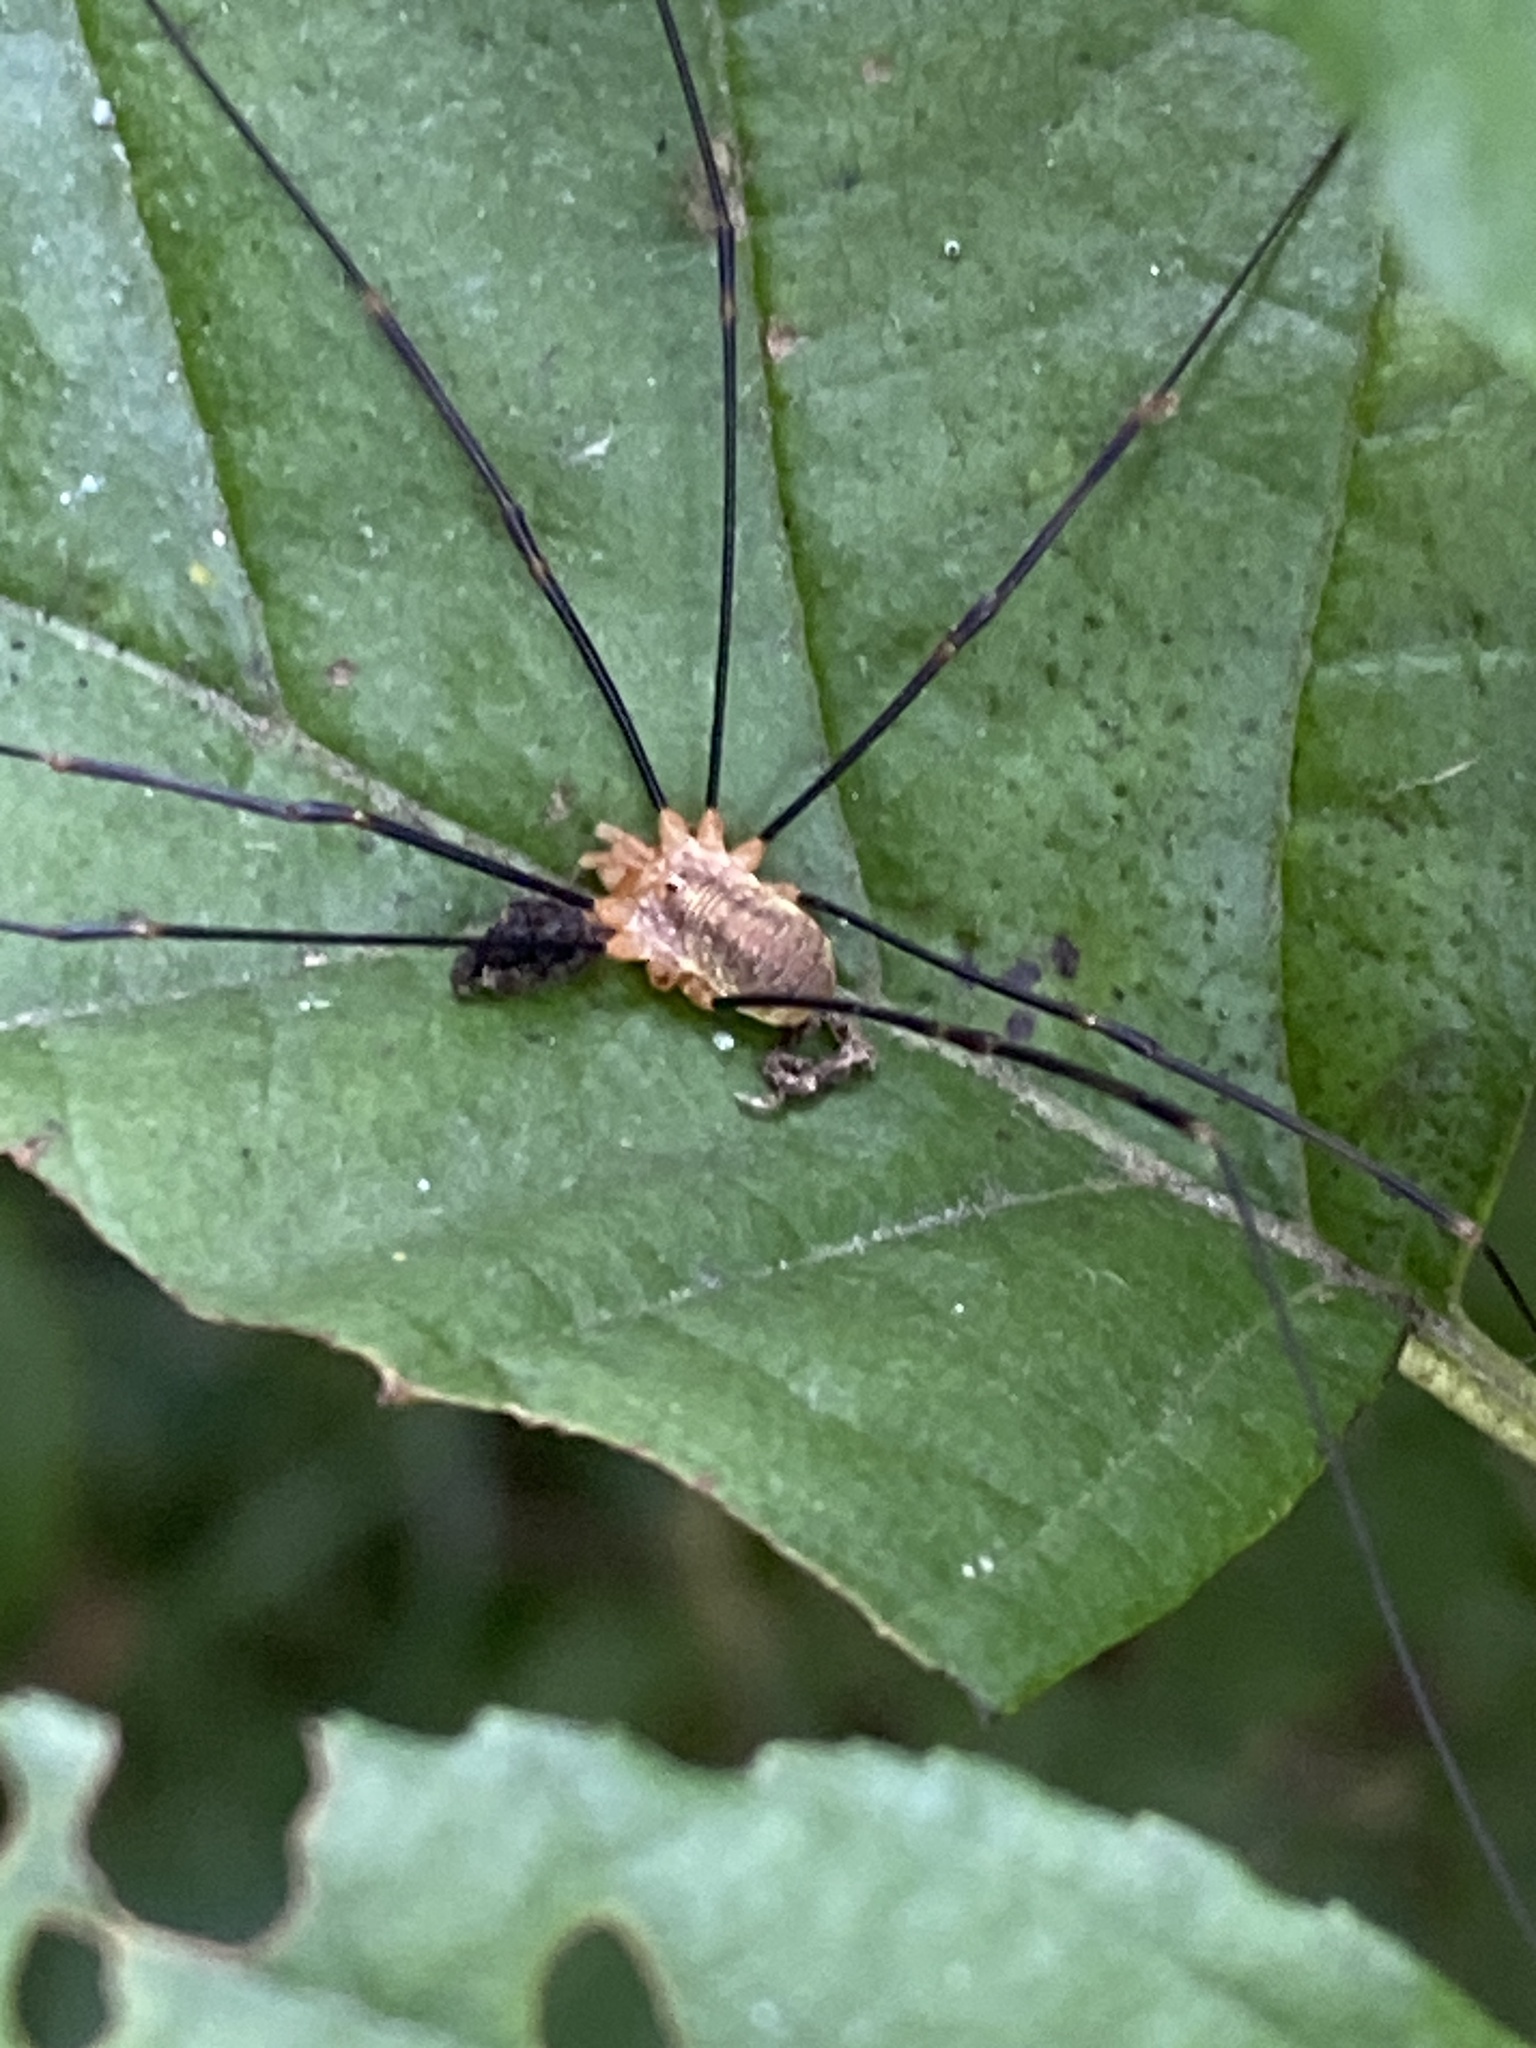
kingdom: Animalia
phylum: Arthropoda
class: Arachnida
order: Opiliones
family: Phalangiidae
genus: Opilio
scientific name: Opilio canestrinii
